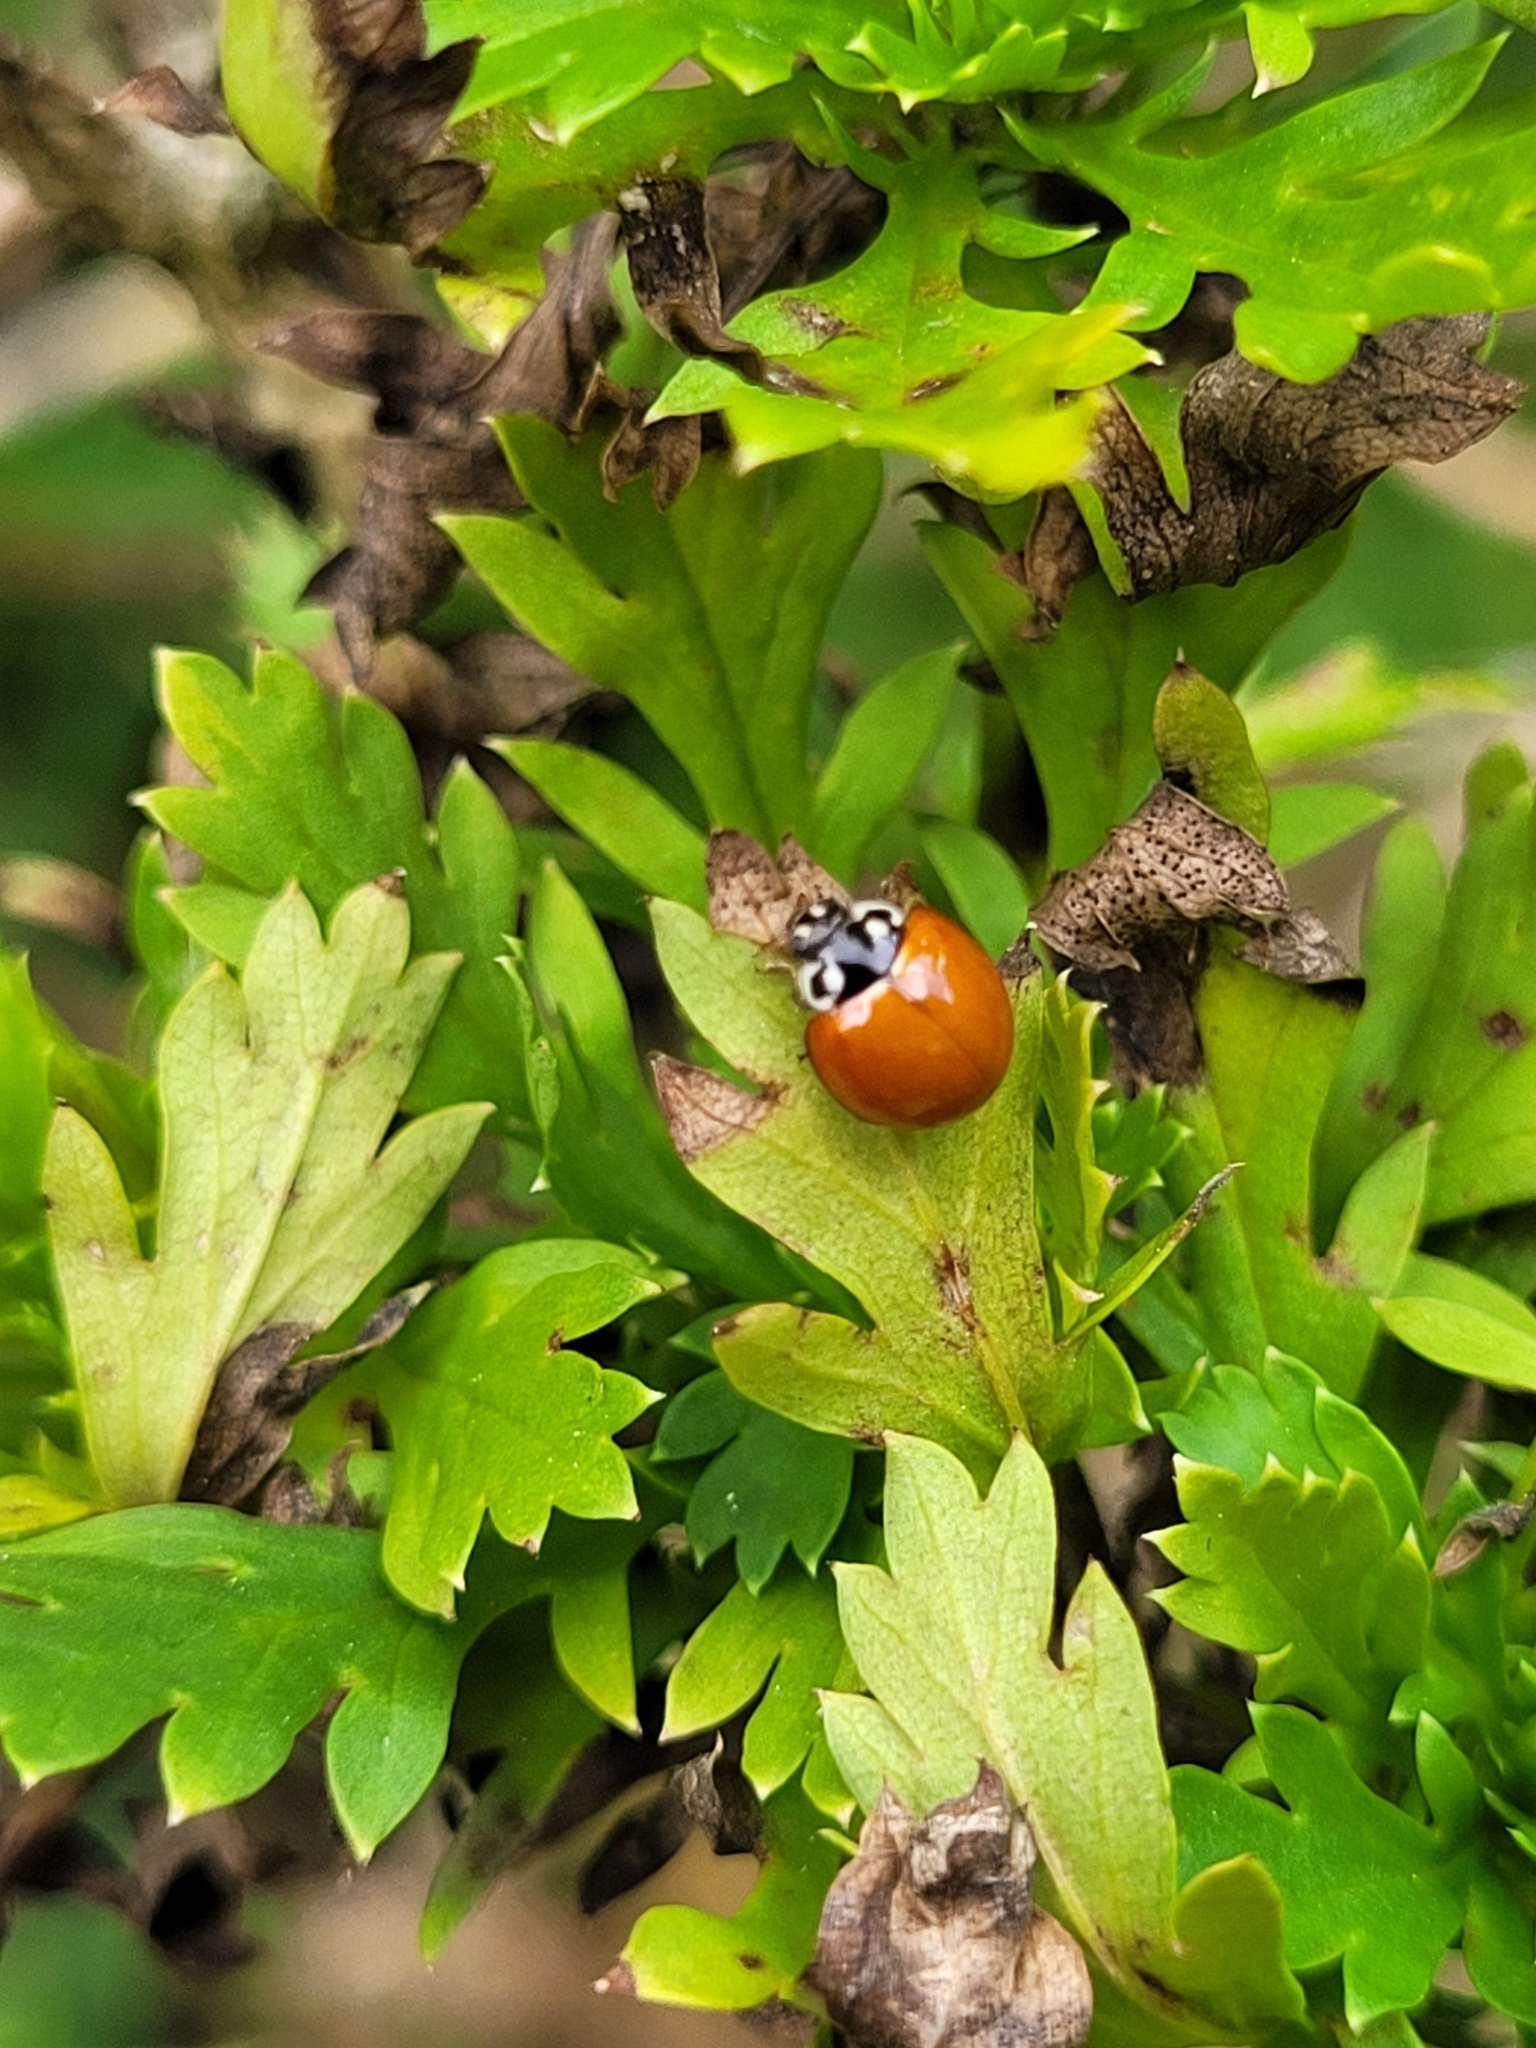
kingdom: Animalia
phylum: Arthropoda
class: Insecta
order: Coleoptera
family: Coccinellidae
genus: Cycloneda
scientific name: Cycloneda sanguinea
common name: Ladybird beetle
